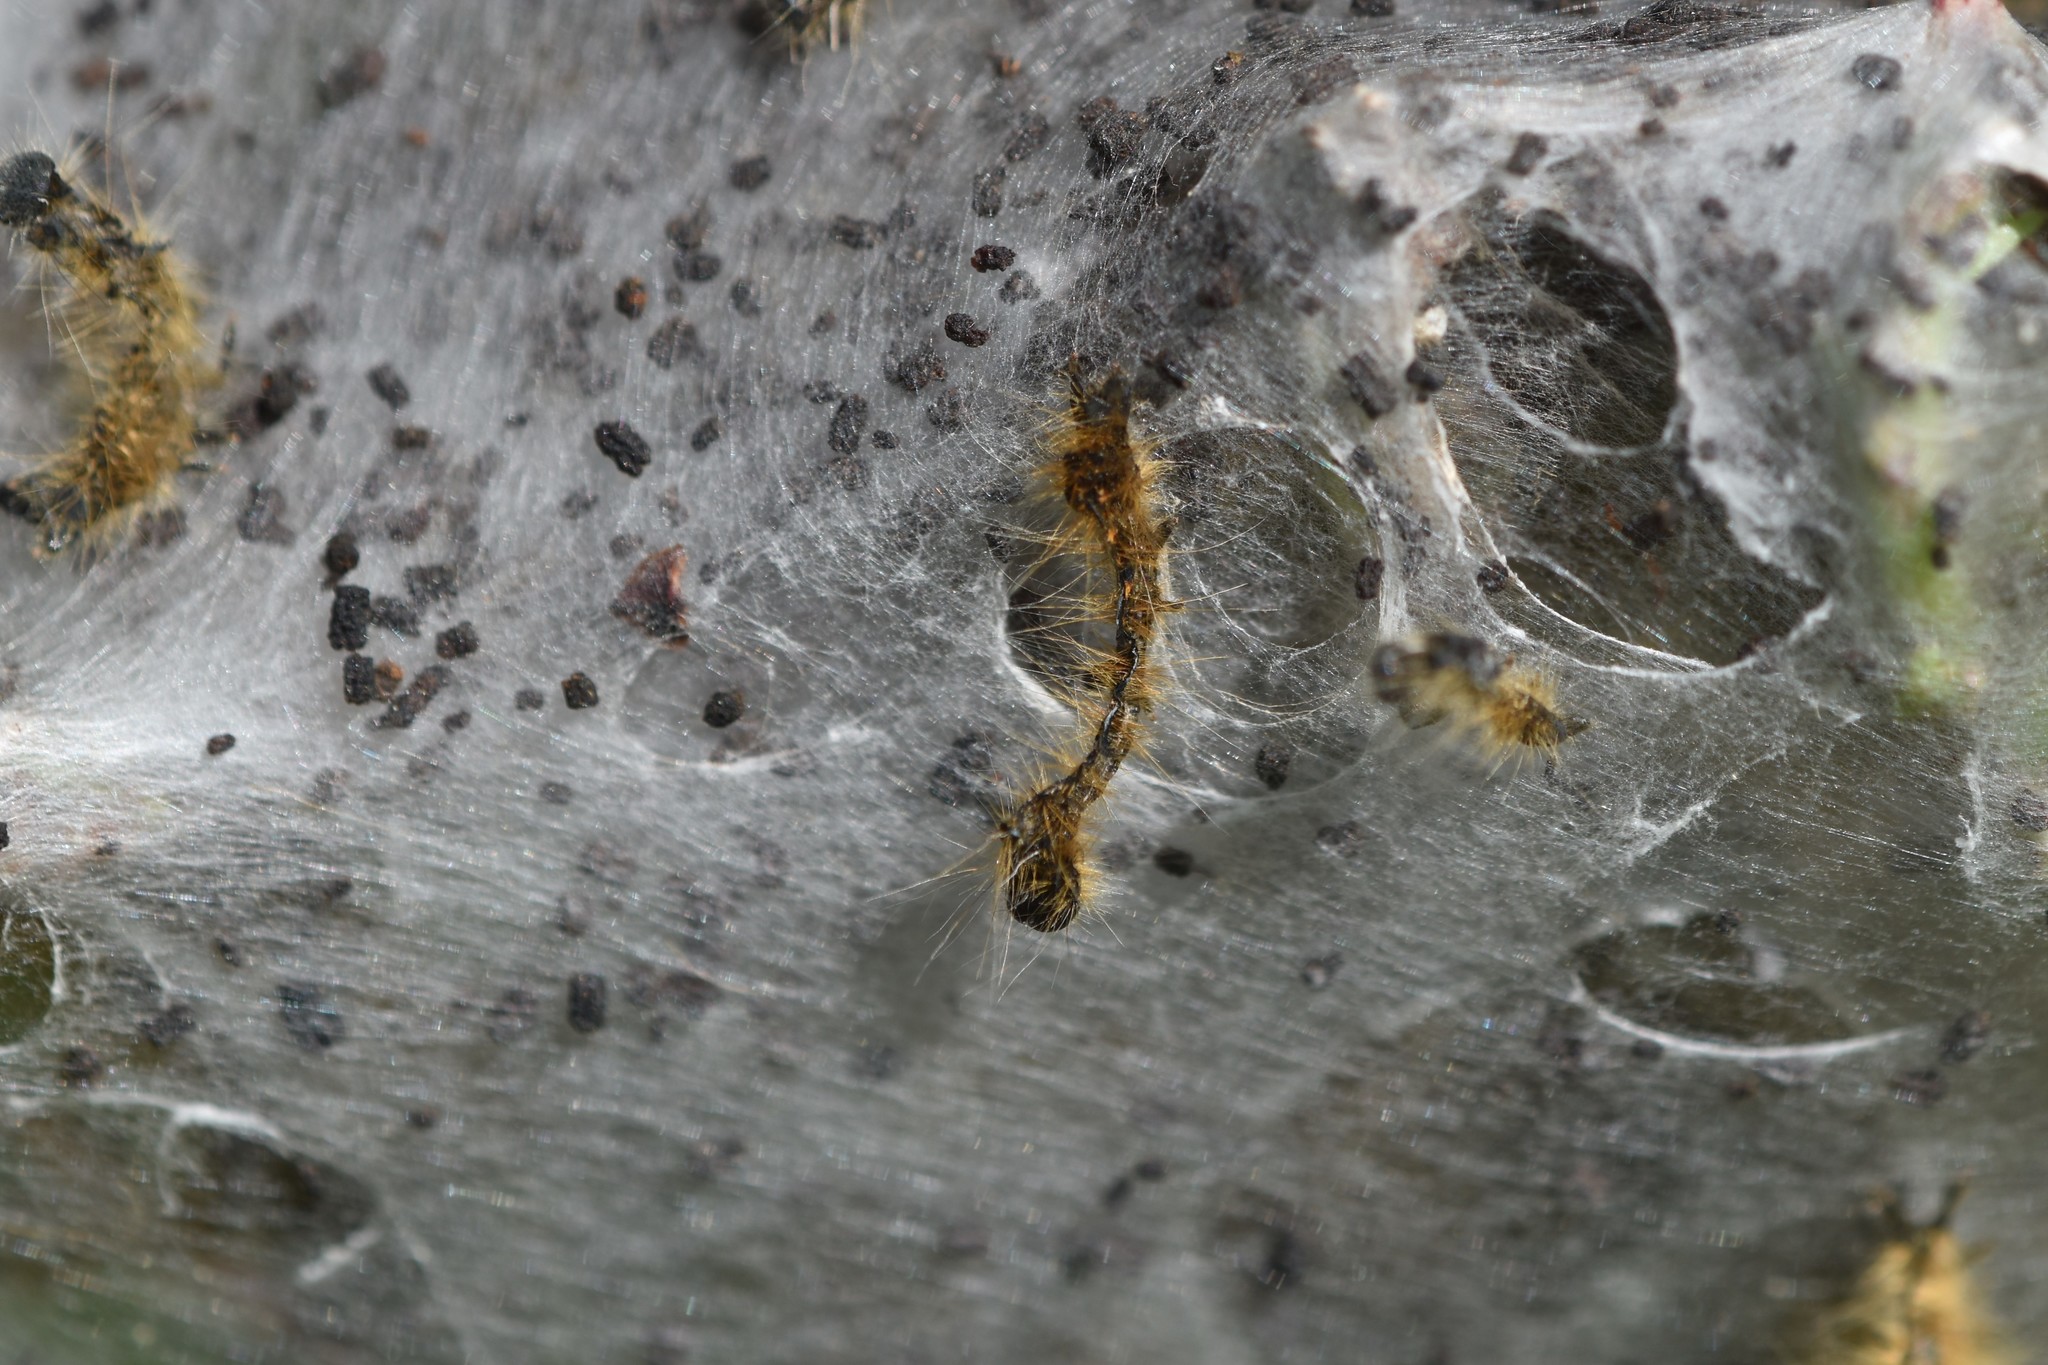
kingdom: Animalia
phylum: Arthropoda
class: Insecta
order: Lepidoptera
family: Lasiocampidae
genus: Malacosoma
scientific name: Malacosoma californica
